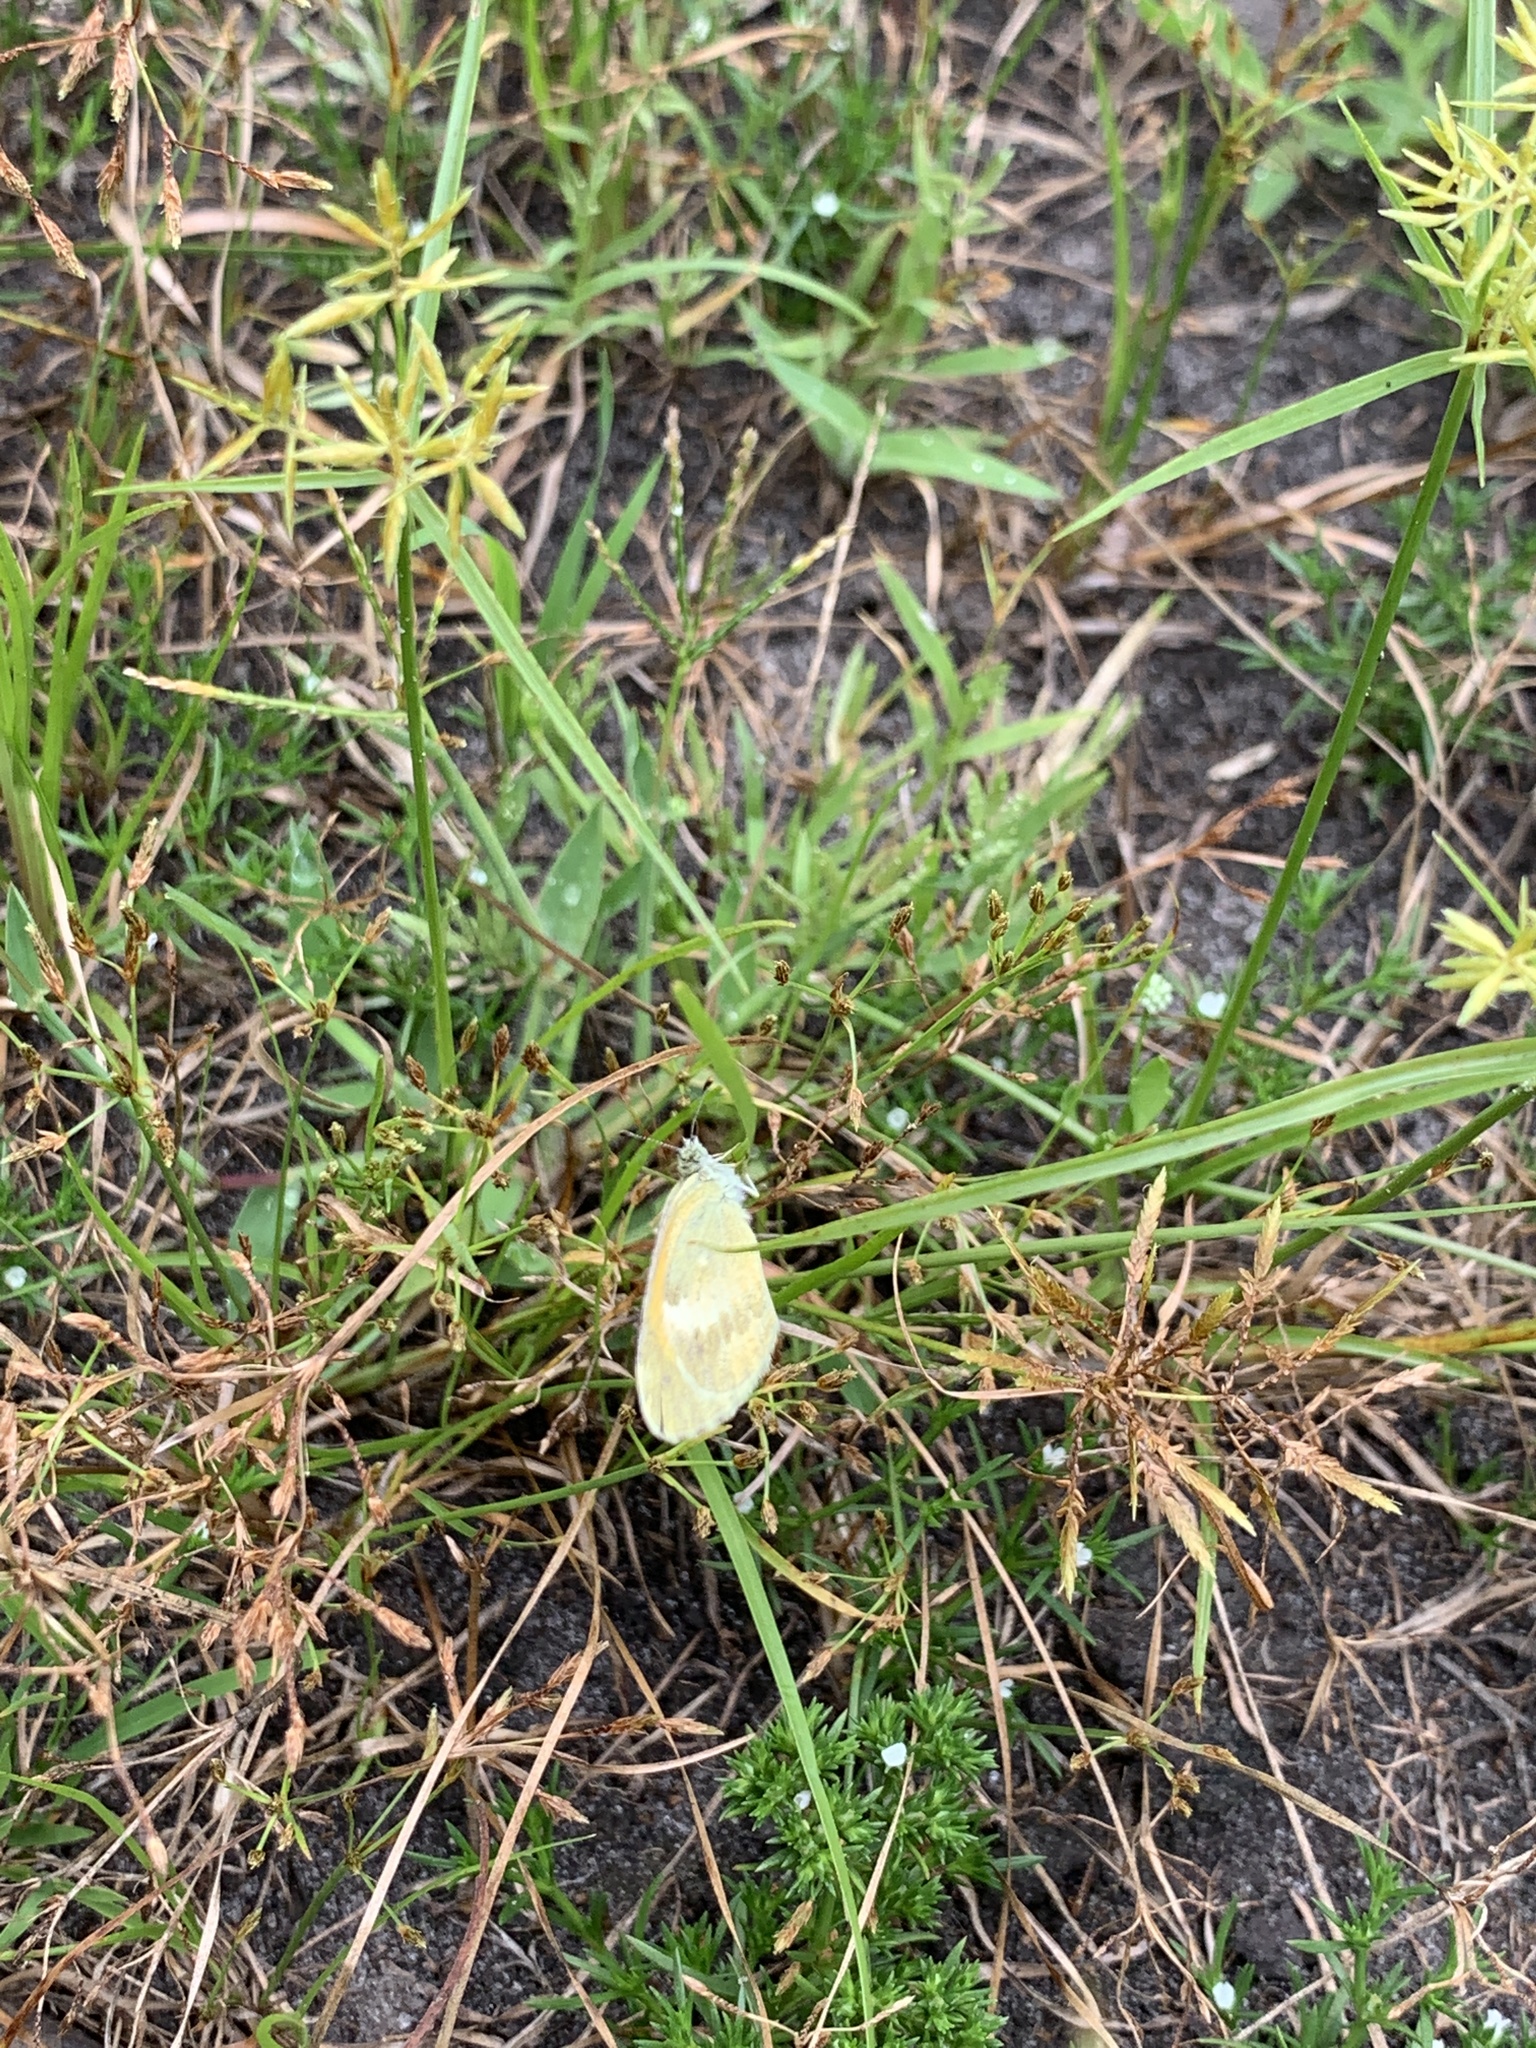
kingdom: Animalia
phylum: Arthropoda
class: Insecta
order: Lepidoptera
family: Pieridae
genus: Nathalis
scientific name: Nathalis iole
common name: Dainty sulphur
